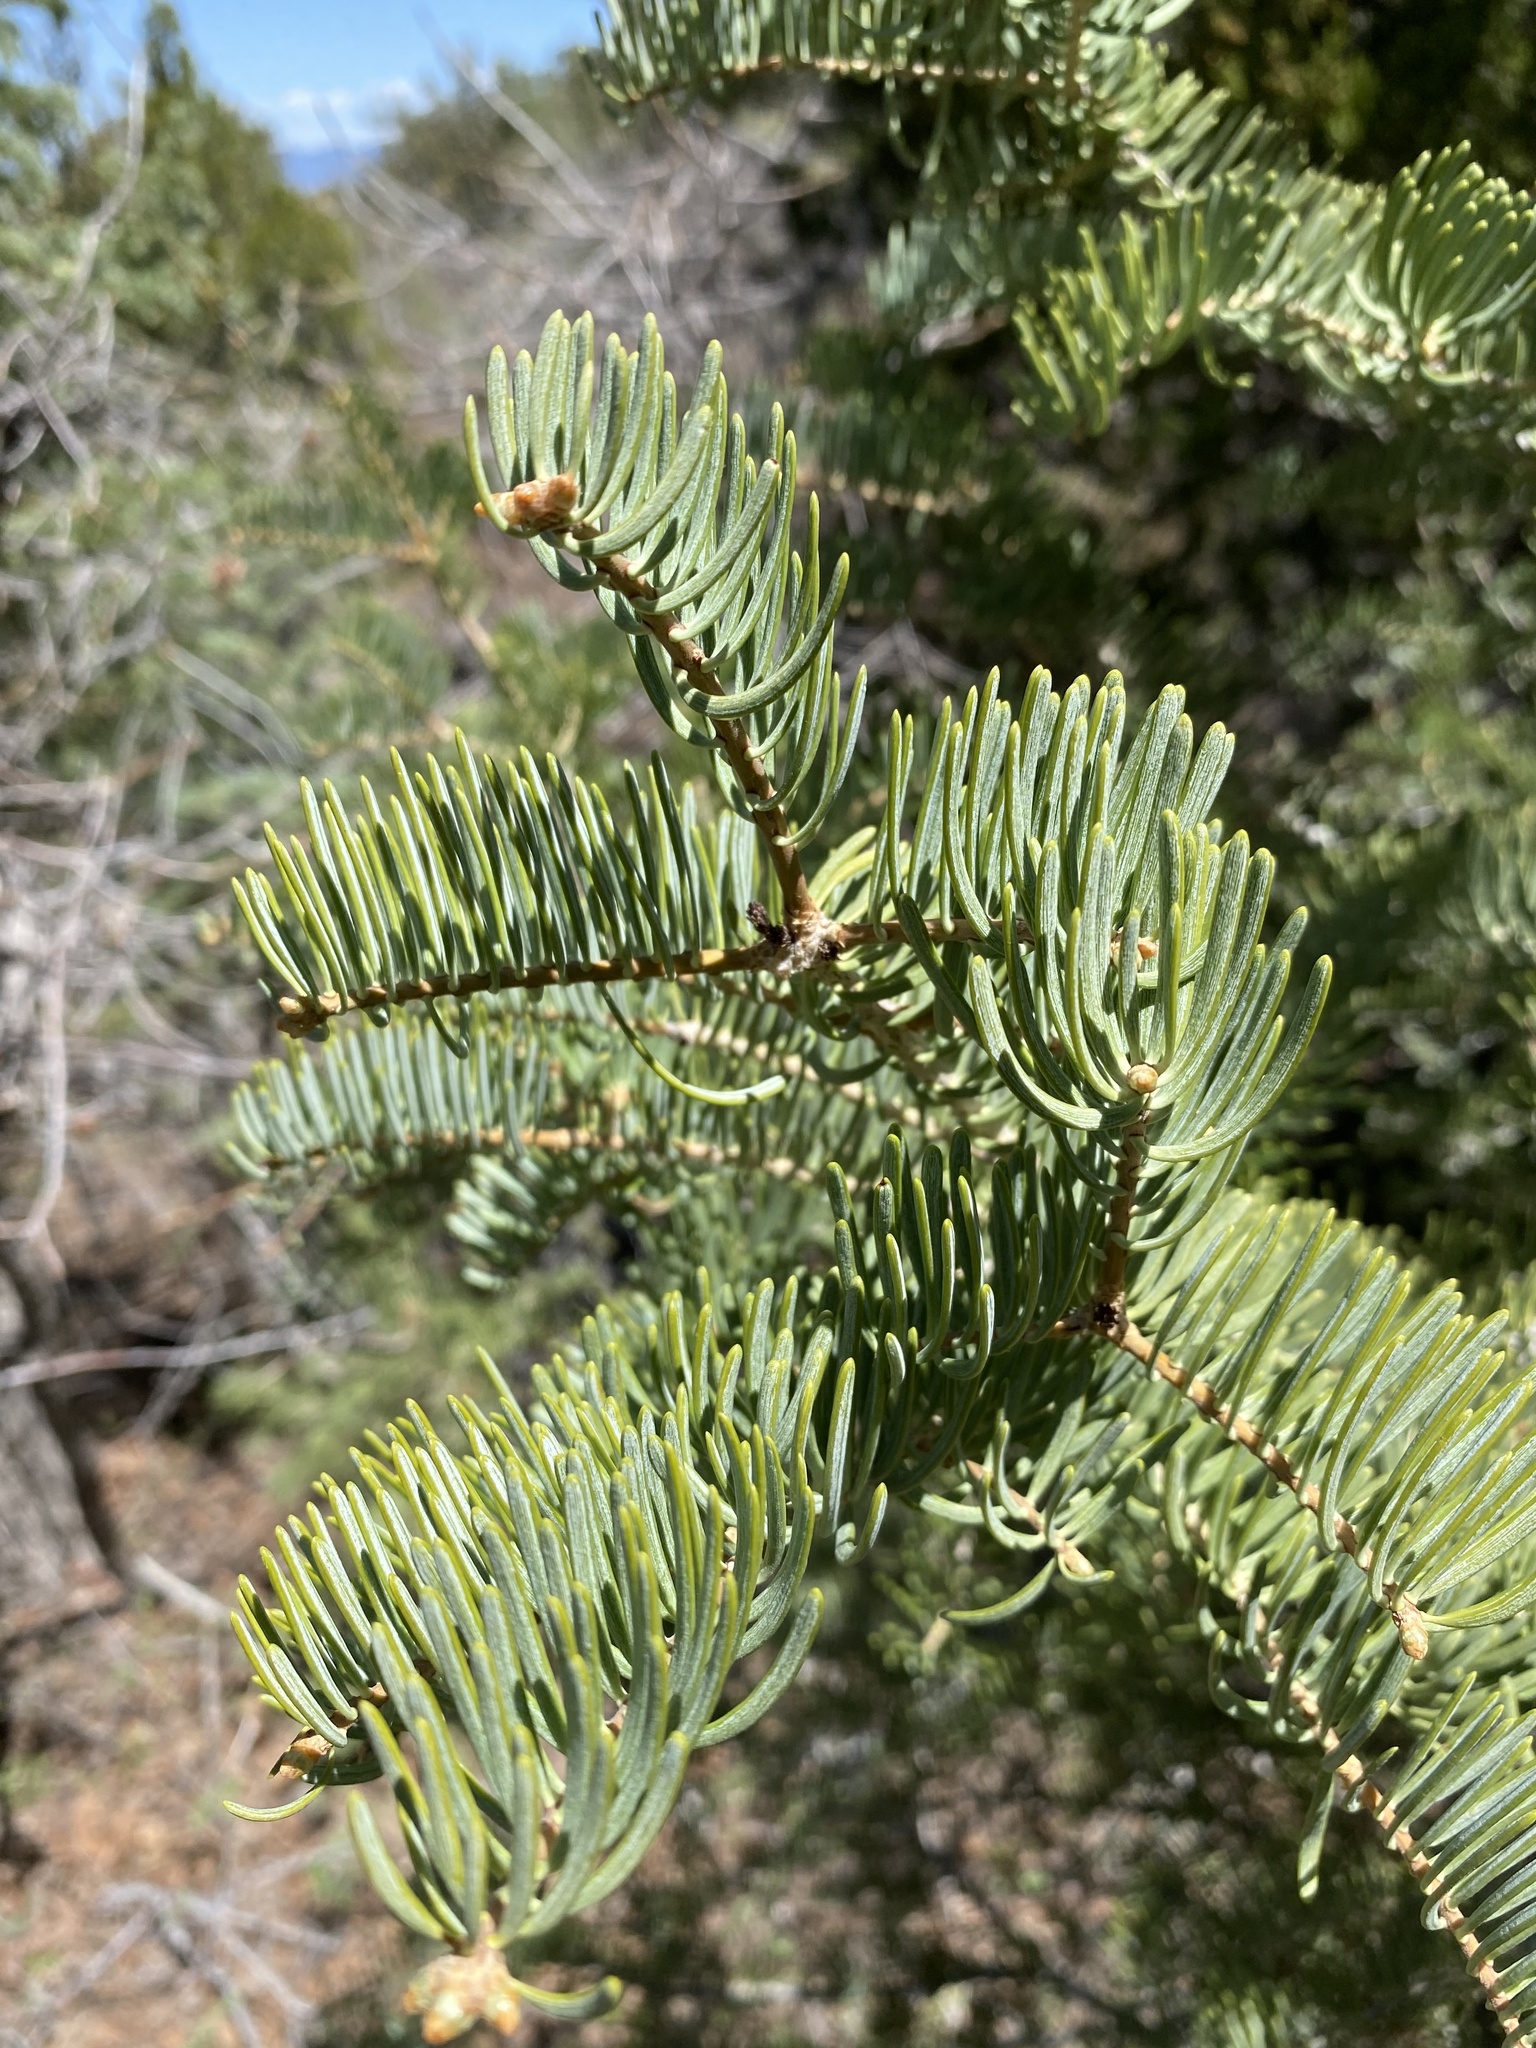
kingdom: Plantae
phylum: Tracheophyta
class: Pinopsida
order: Pinales
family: Pinaceae
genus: Abies
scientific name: Abies concolor
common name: Colorado fir
